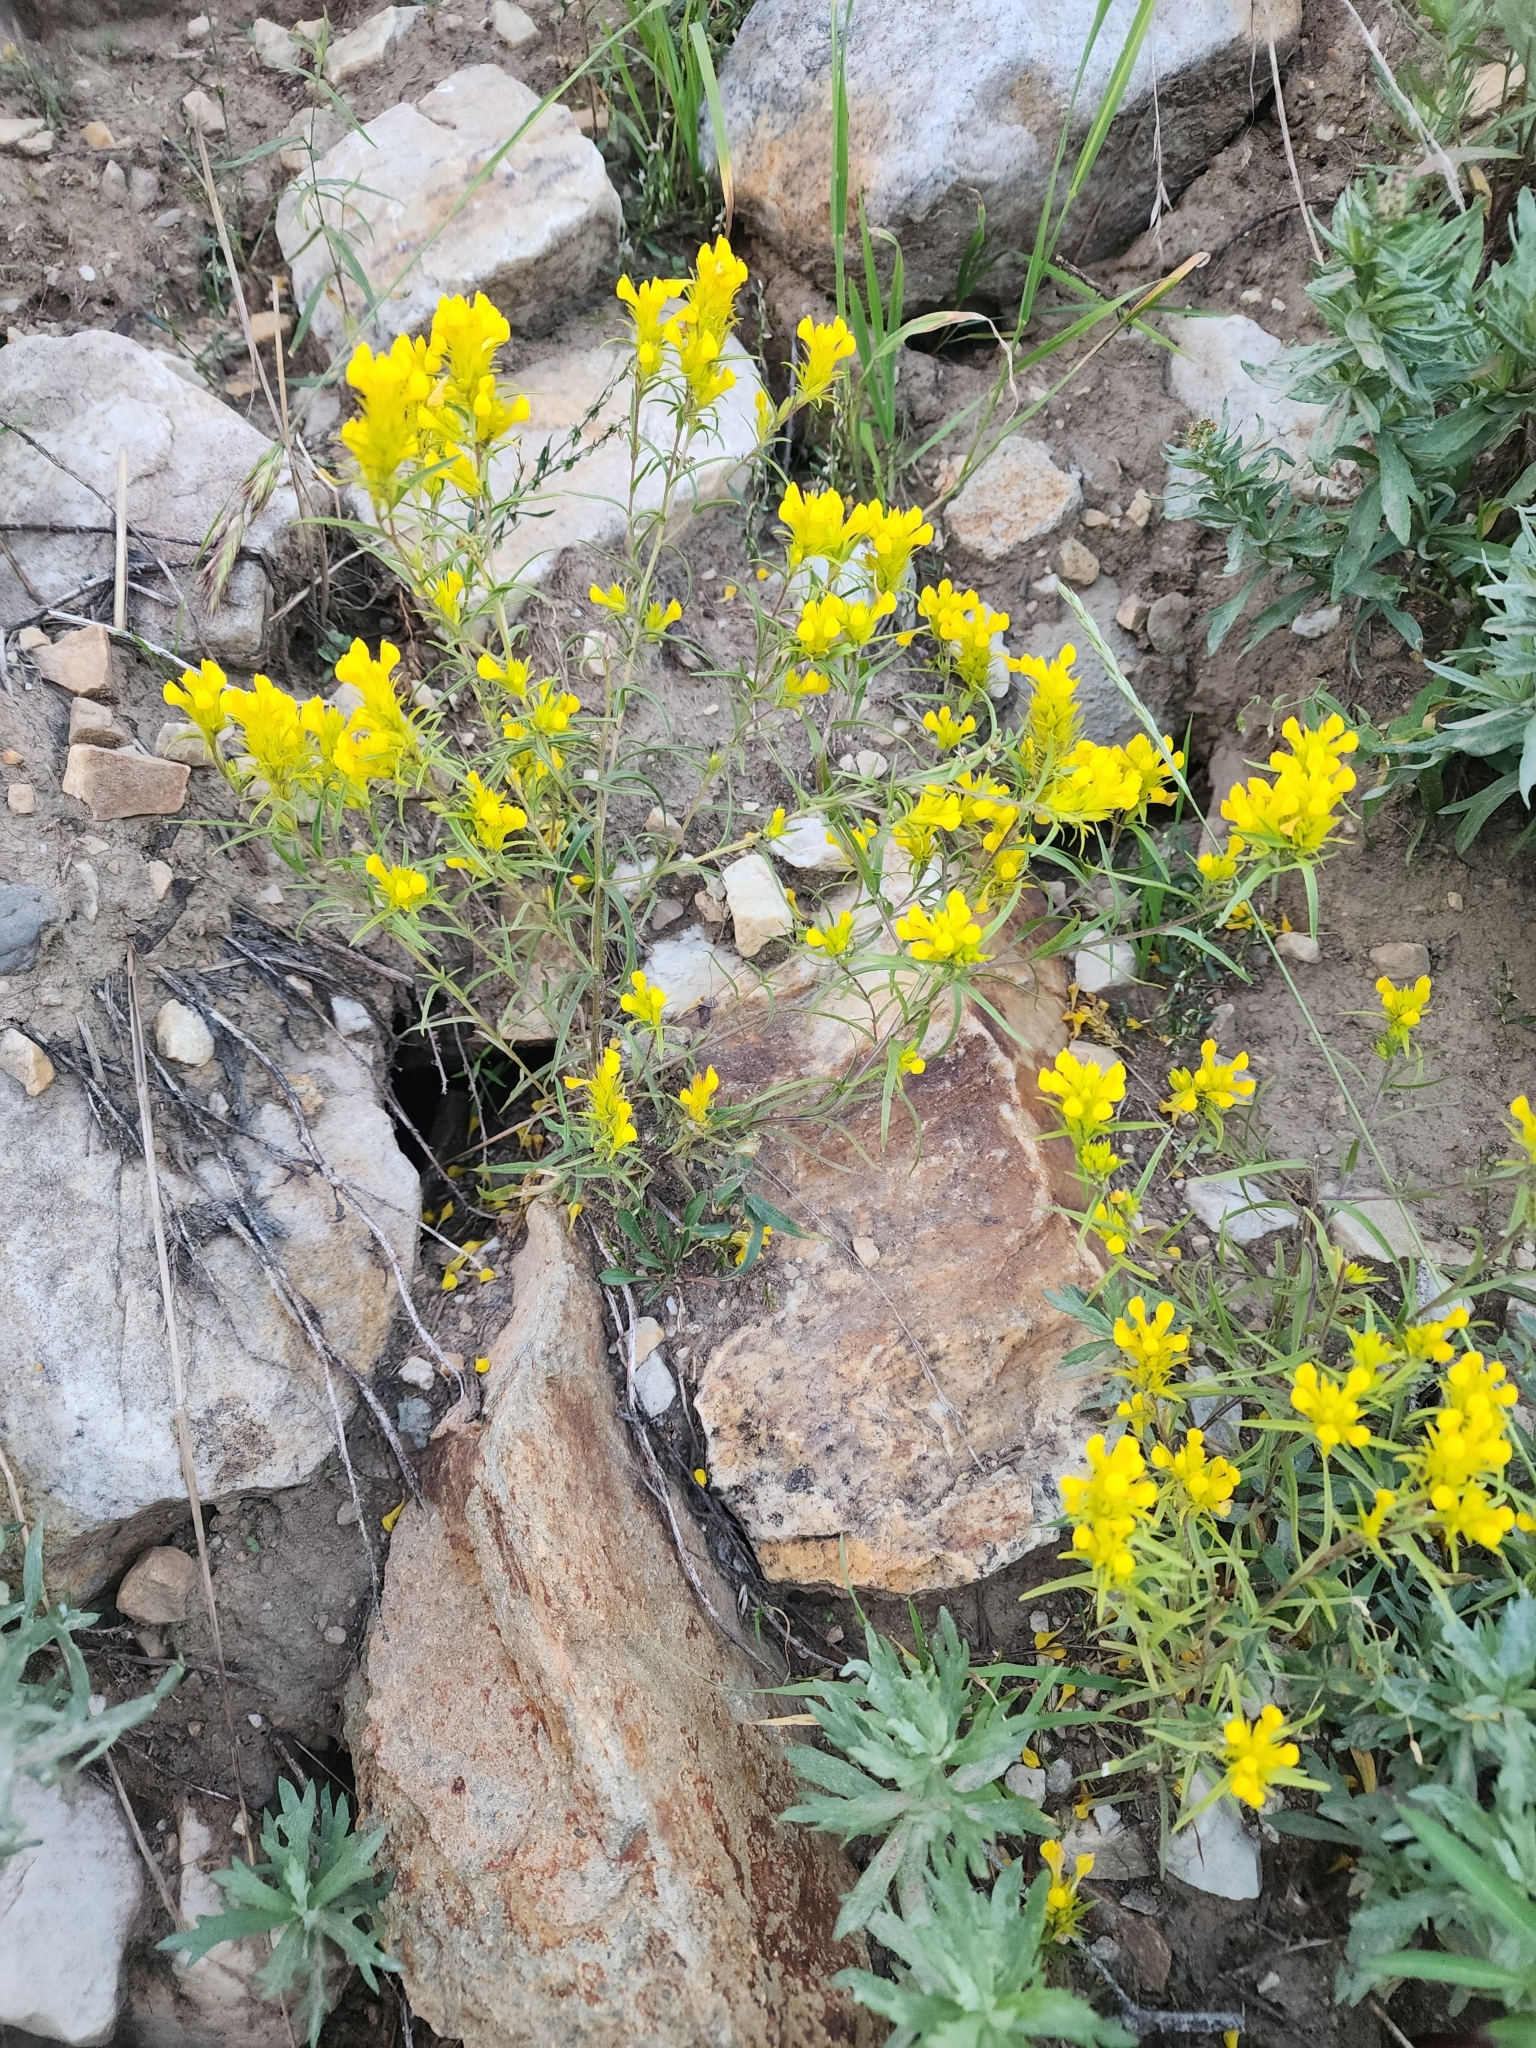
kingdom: Plantae
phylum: Tracheophyta
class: Magnoliopsida
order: Lamiales
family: Orobanchaceae
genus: Orthocarpus
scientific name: Orthocarpus tolmiei
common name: Tolmie's owl-clover
